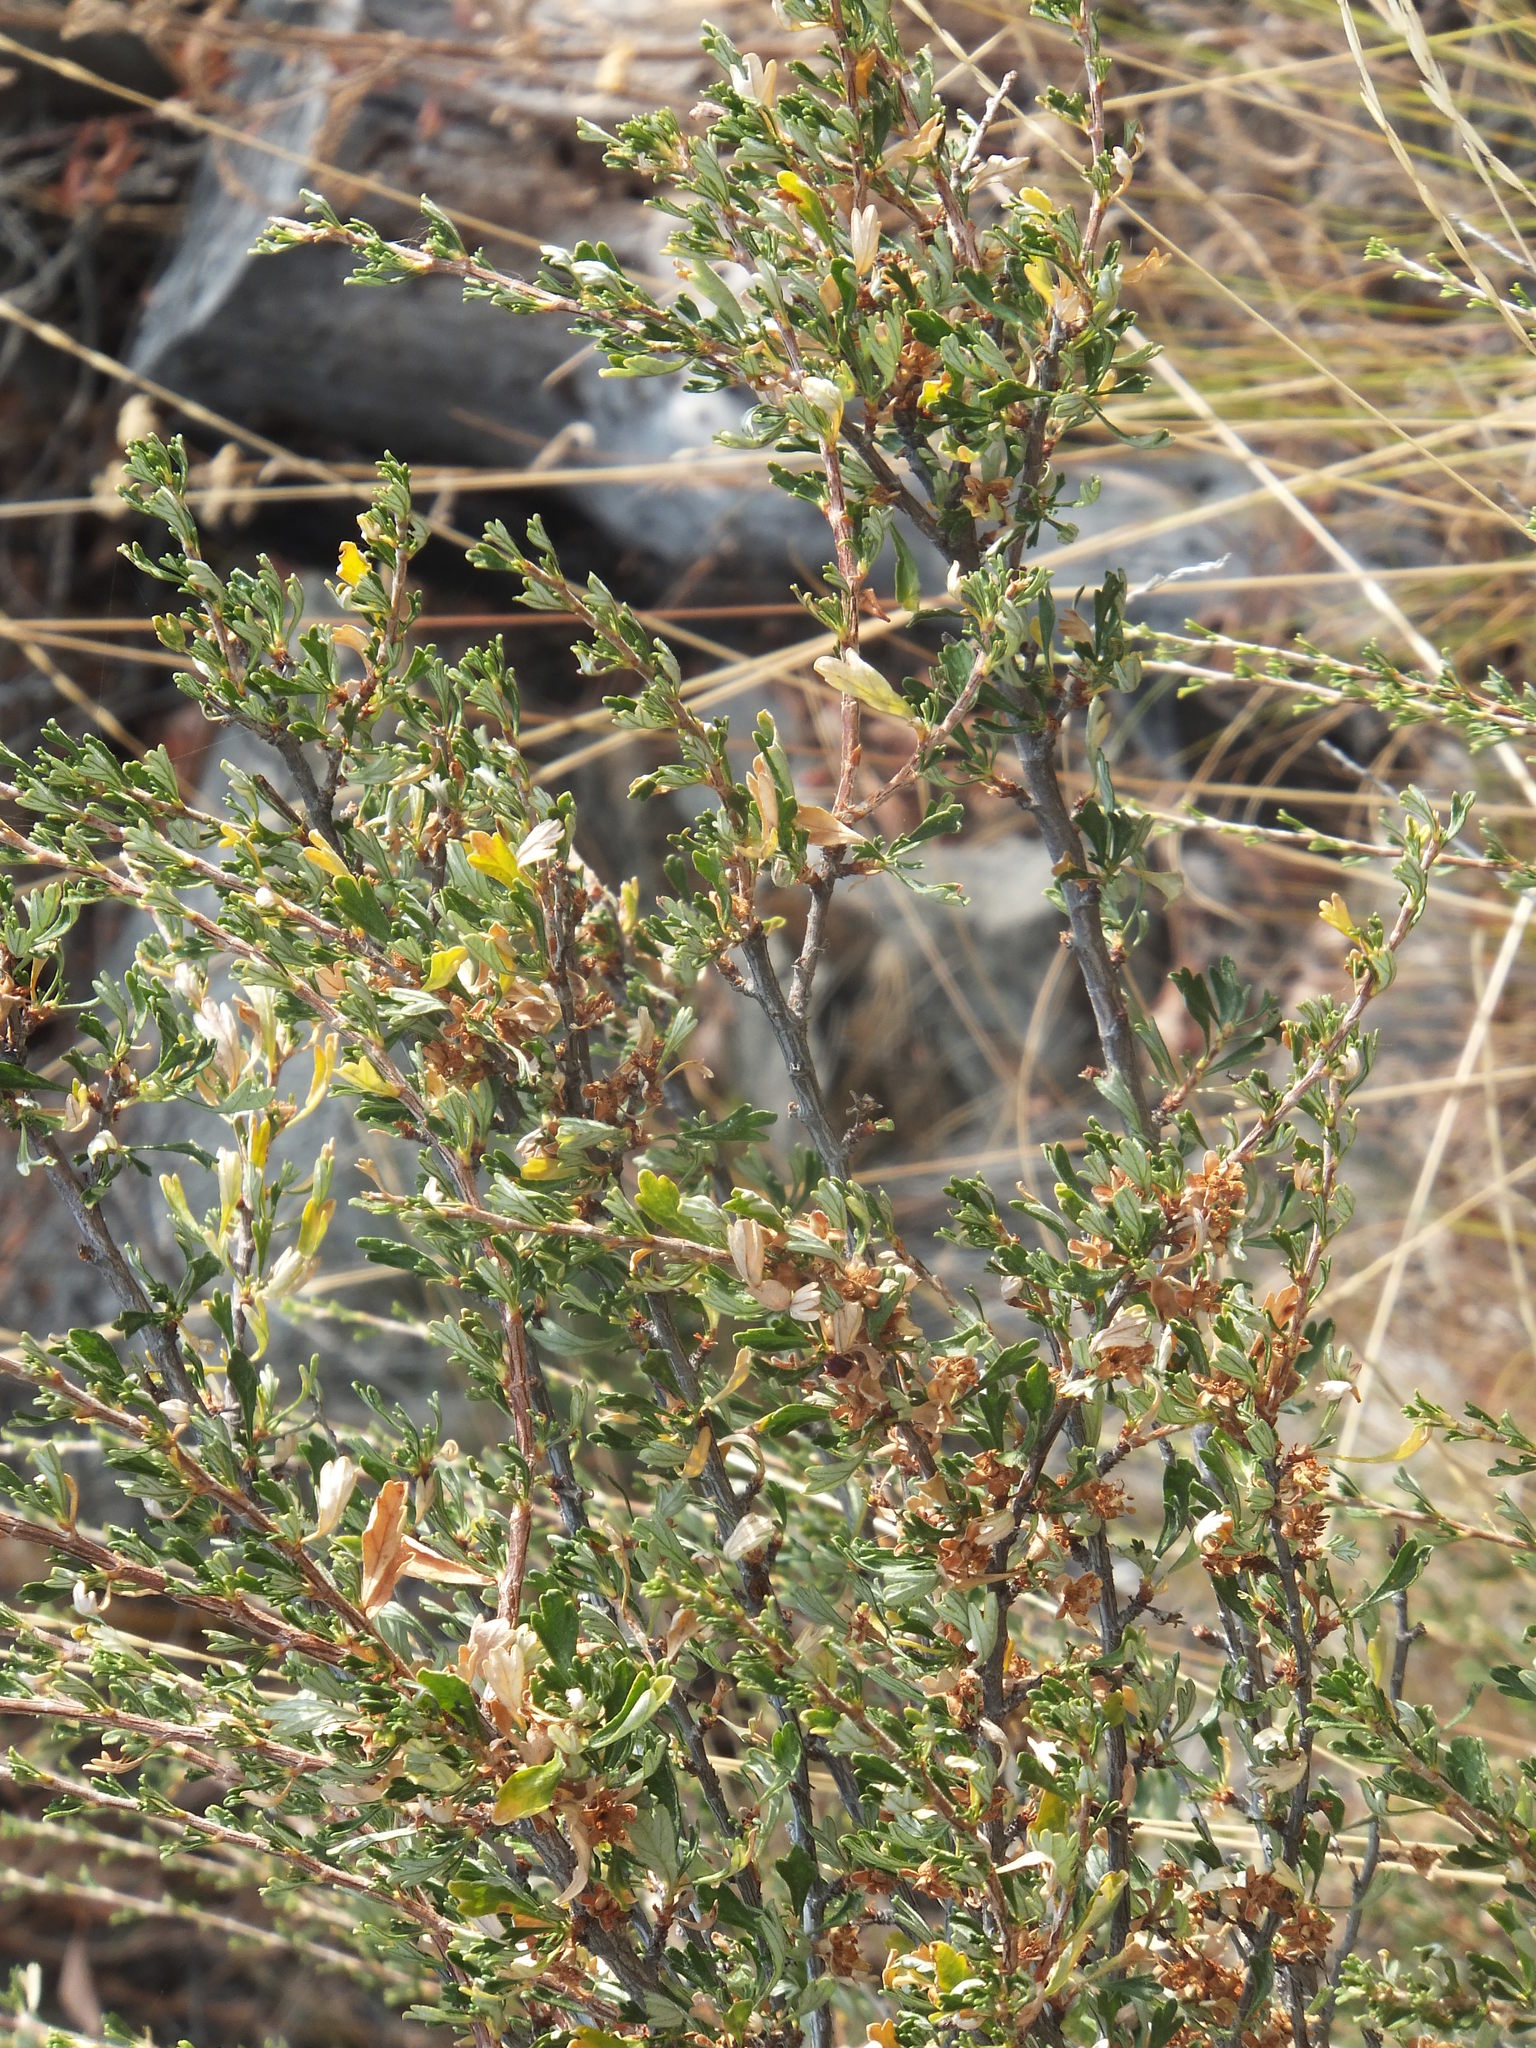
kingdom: Plantae
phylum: Tracheophyta
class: Magnoliopsida
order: Rosales
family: Rosaceae
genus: Purshia
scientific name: Purshia tridentata
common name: Antelope bitterbrush
